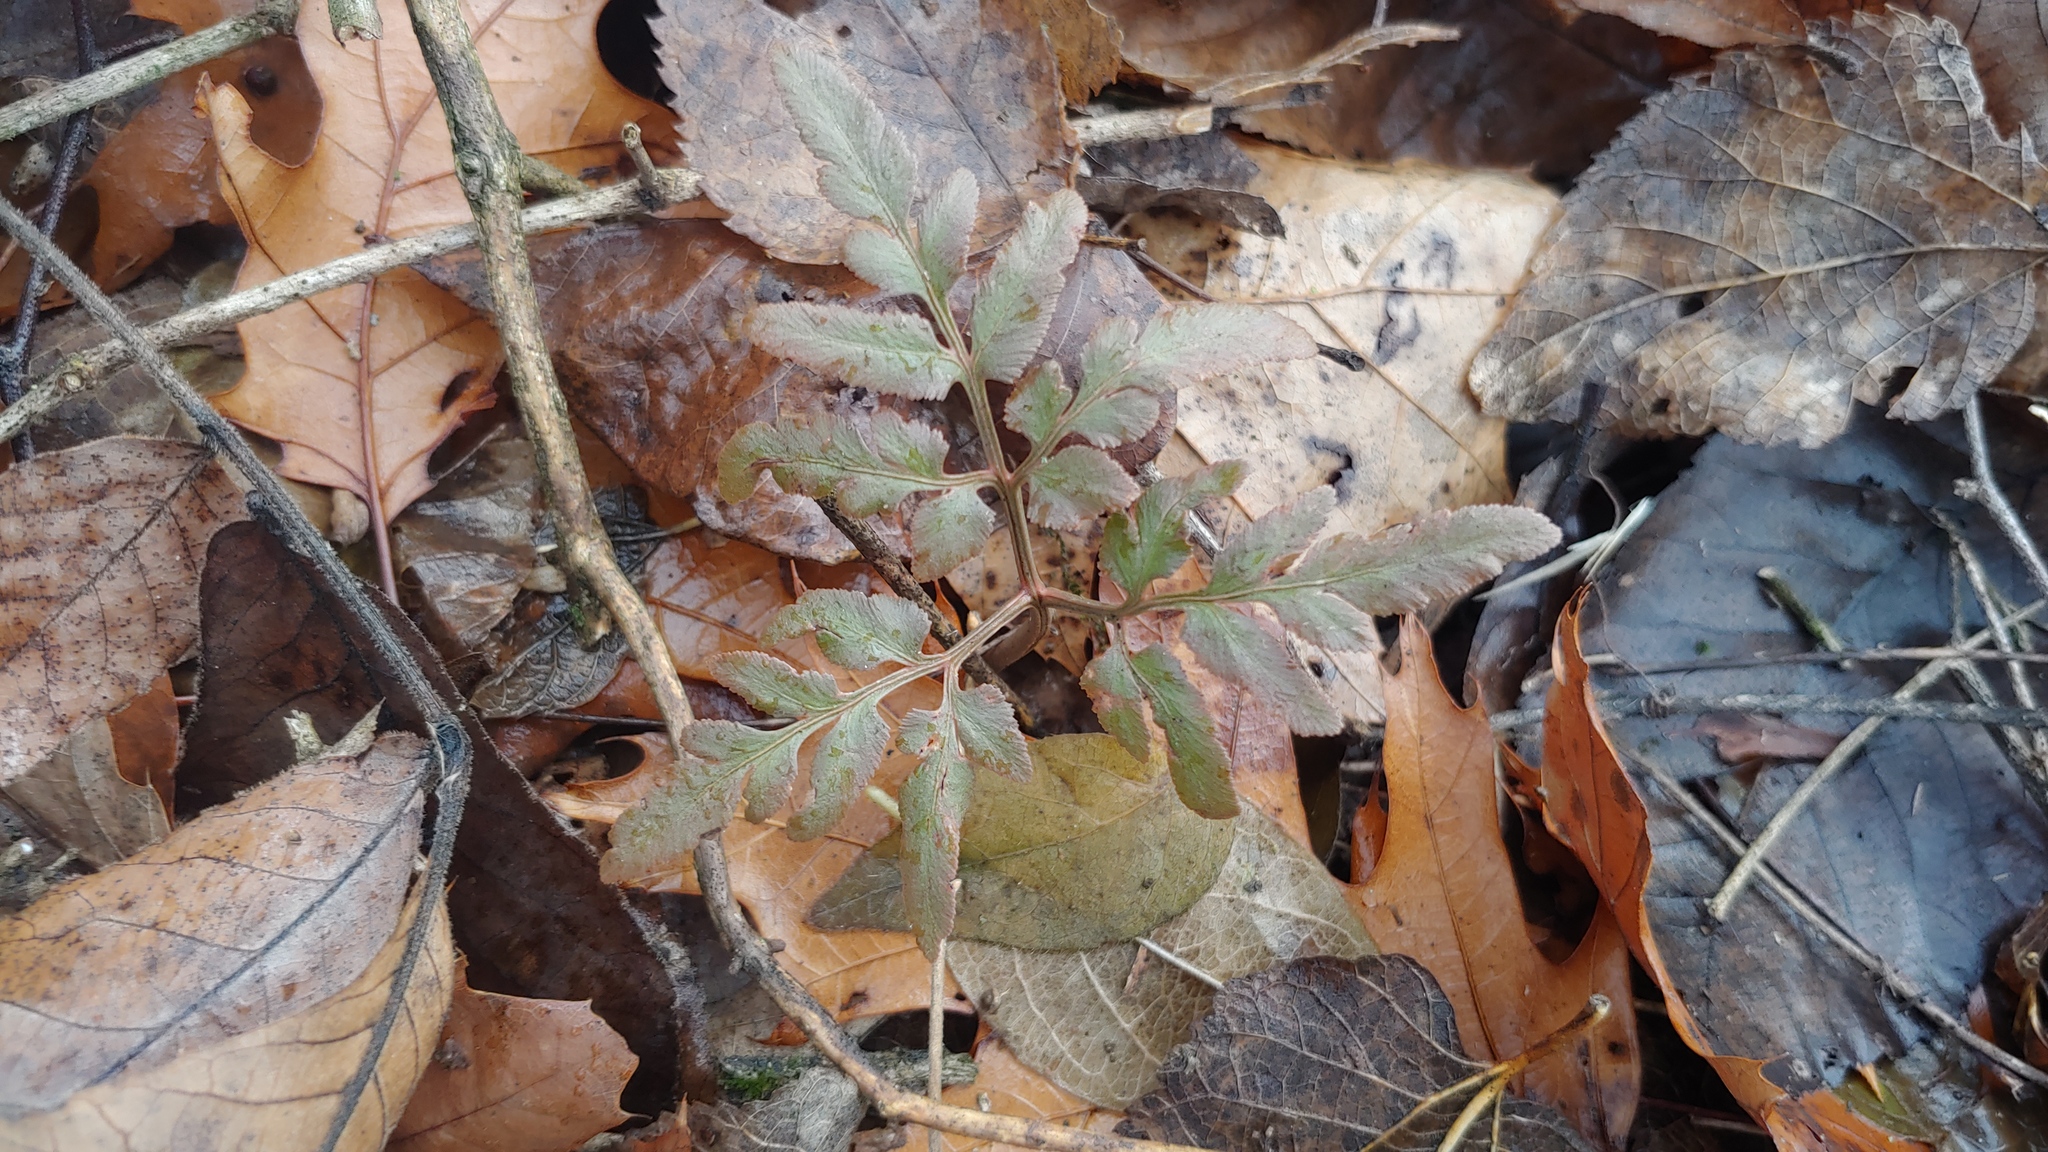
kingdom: Plantae
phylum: Tracheophyta
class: Polypodiopsida
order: Ophioglossales
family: Ophioglossaceae
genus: Sceptridium
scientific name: Sceptridium dissectum
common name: Cut-leaved grapefern
